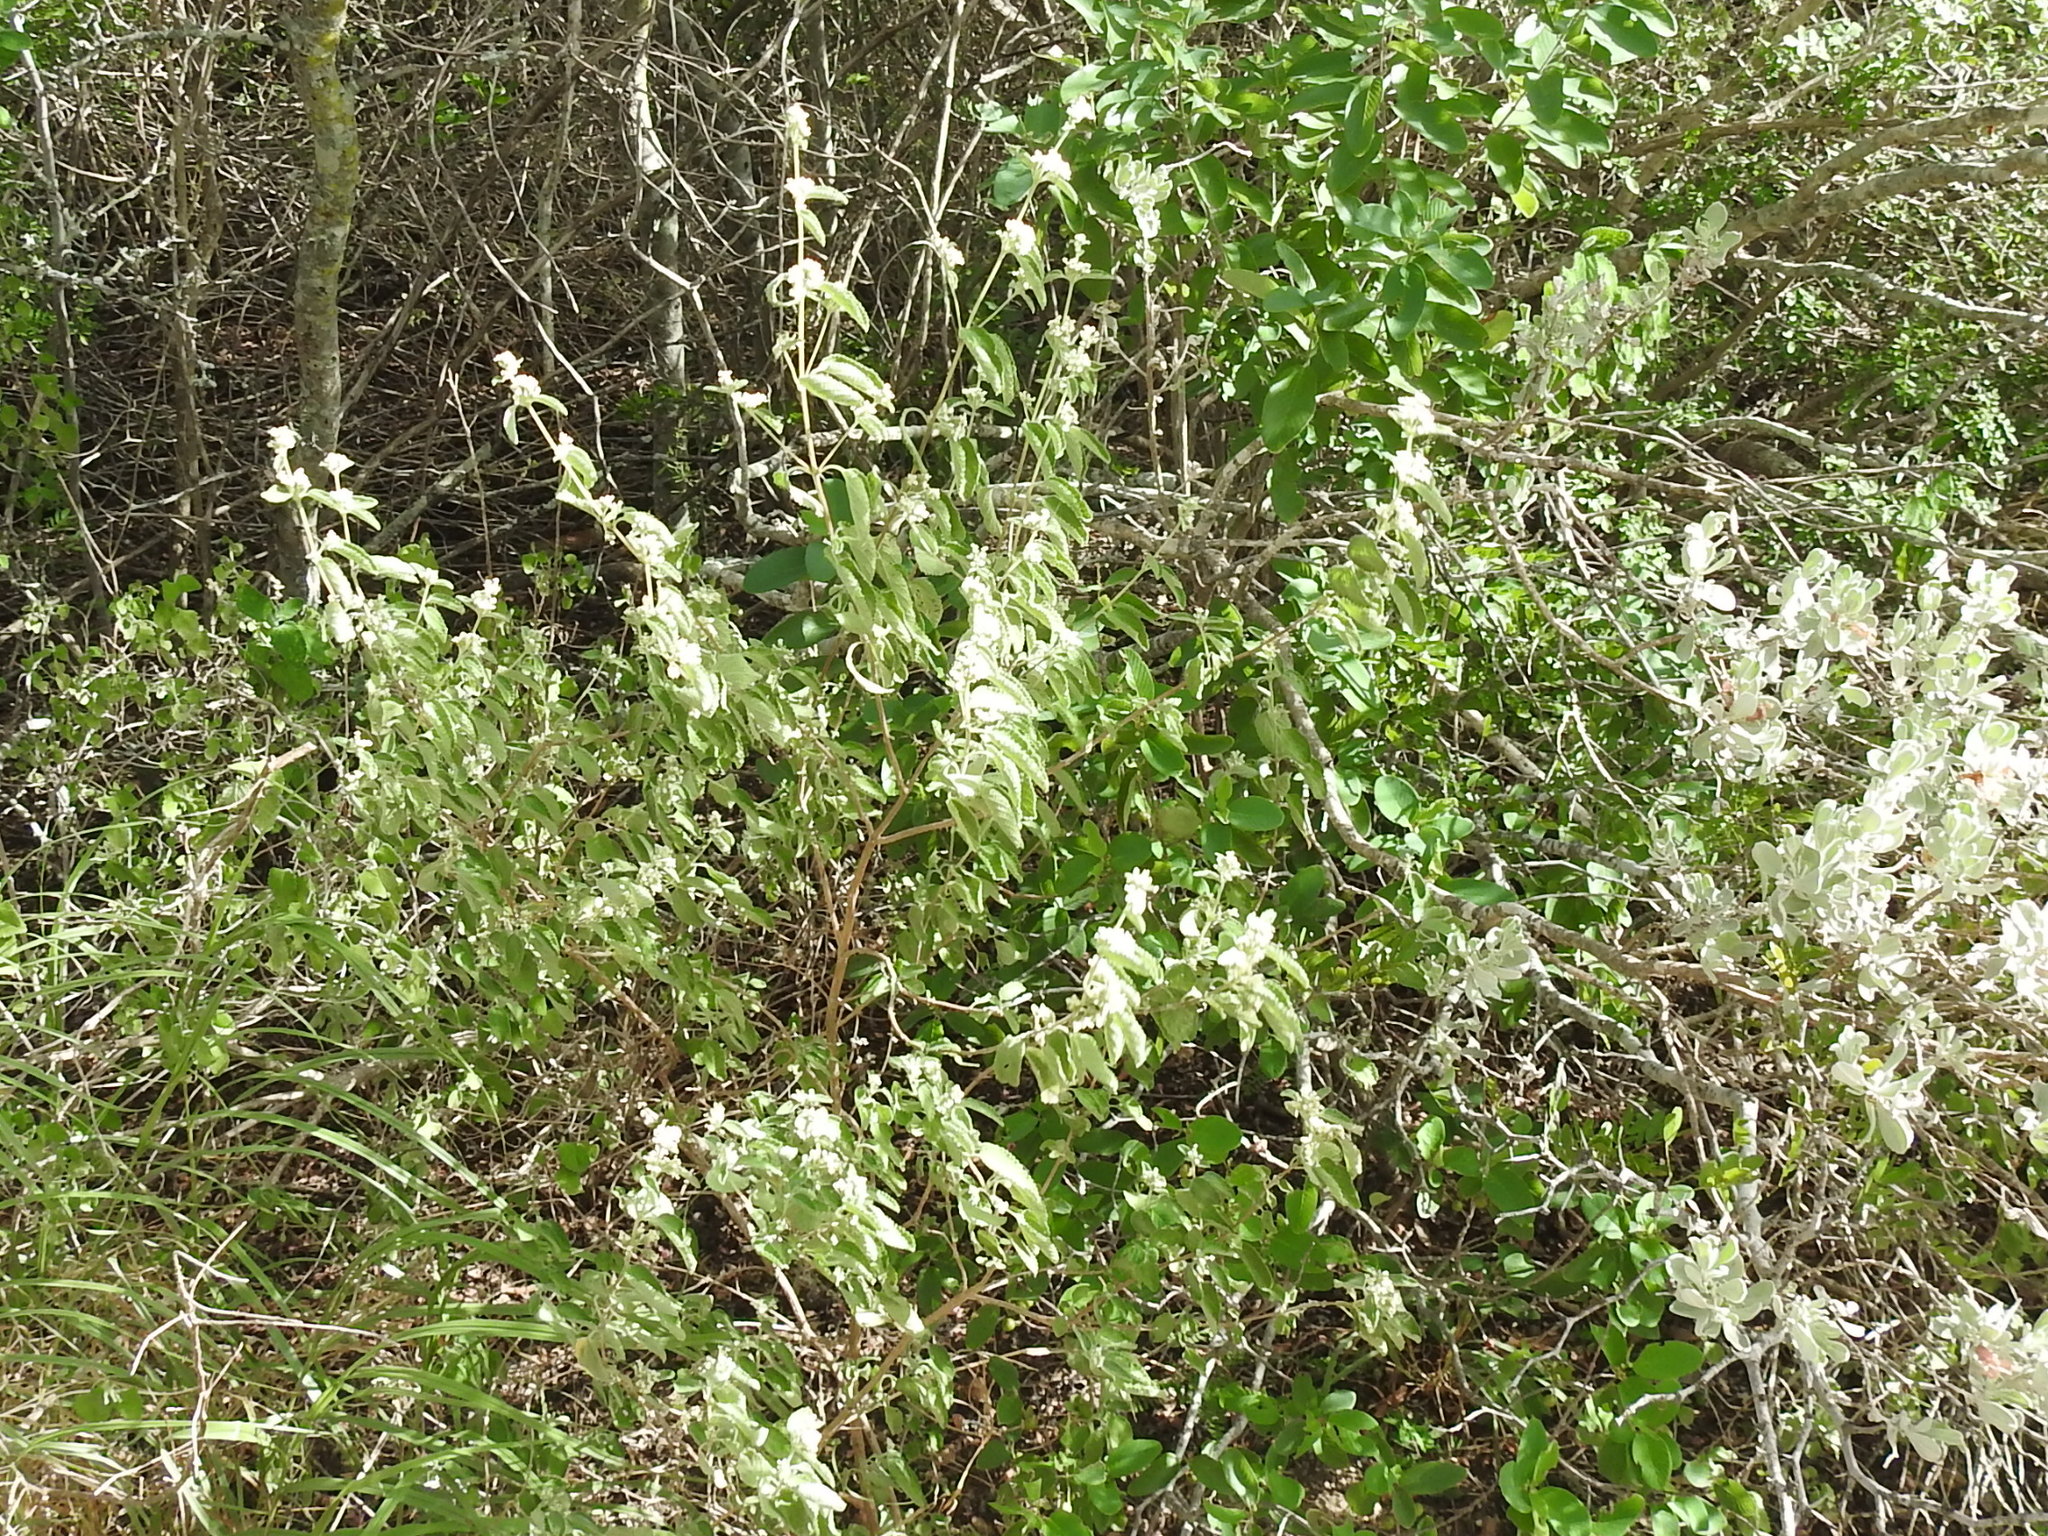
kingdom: Plantae
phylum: Tracheophyta
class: Magnoliopsida
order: Lamiales
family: Verbenaceae
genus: Lippia
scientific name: Lippia origanoides
